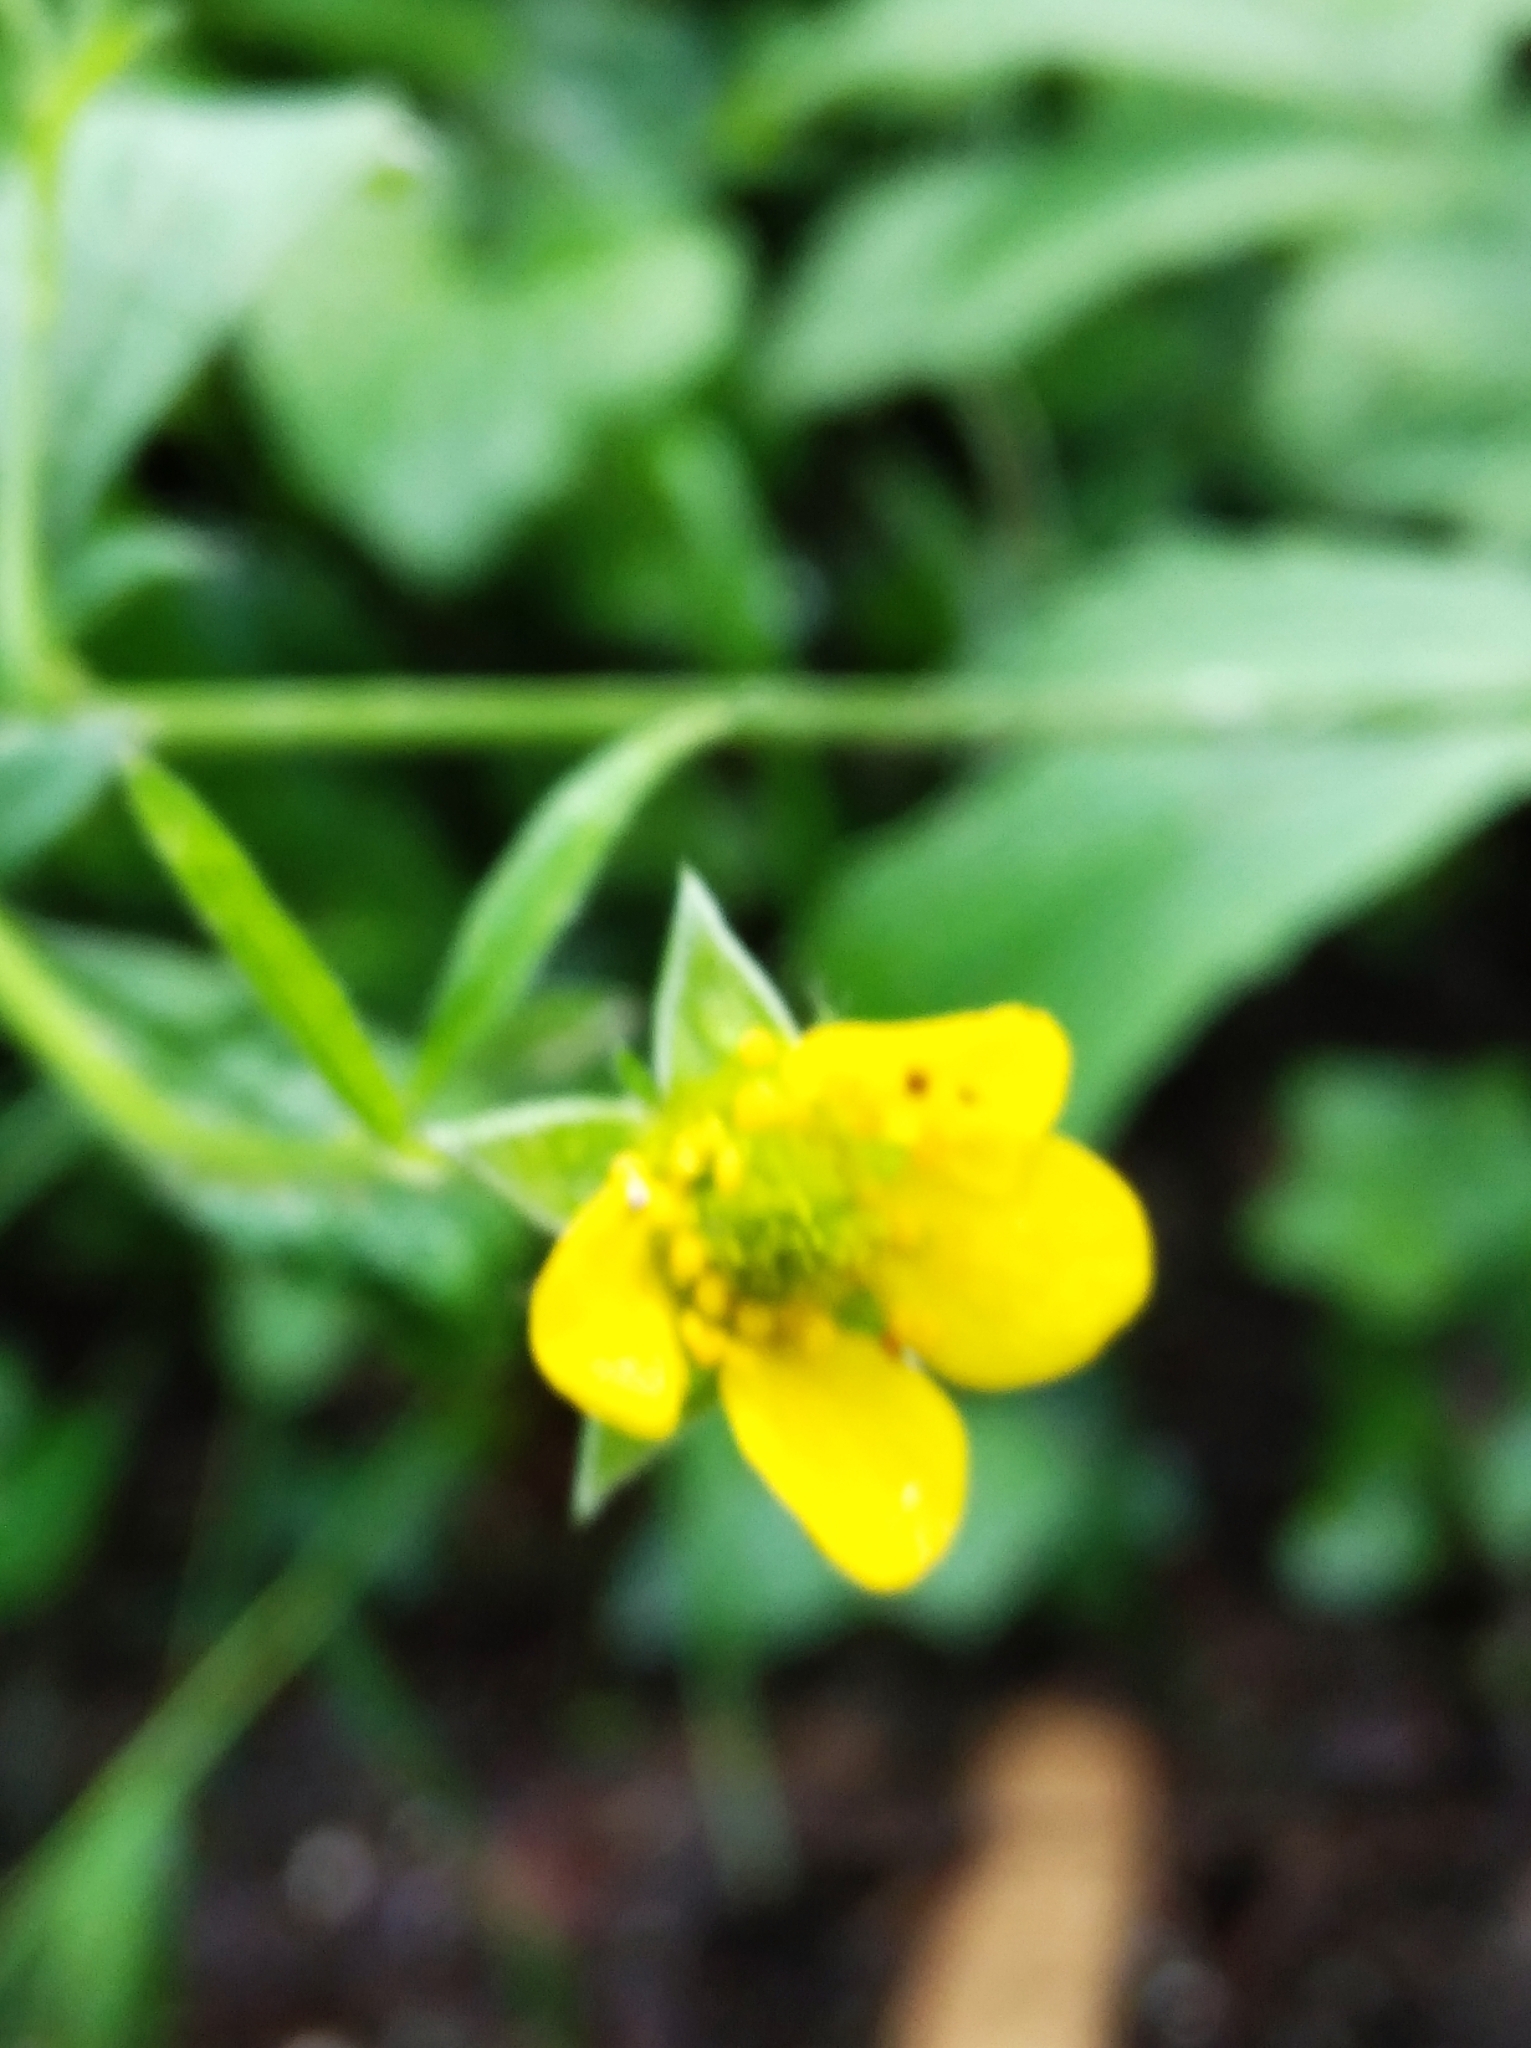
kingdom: Plantae
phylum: Tracheophyta
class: Magnoliopsida
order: Rosales
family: Rosaceae
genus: Geum
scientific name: Geum urbanum
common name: Wood avens
